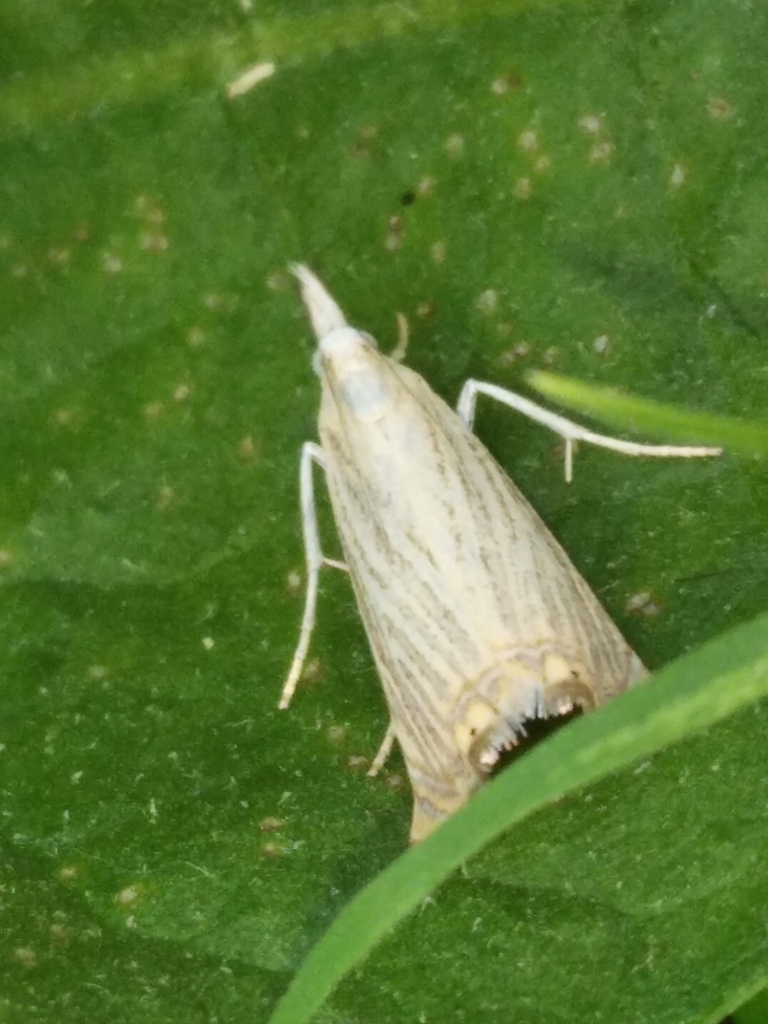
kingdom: Animalia
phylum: Arthropoda
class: Insecta
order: Lepidoptera
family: Crambidae
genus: Chrysoteuchia
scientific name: Chrysoteuchia culmella
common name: Garden grass-veneer
